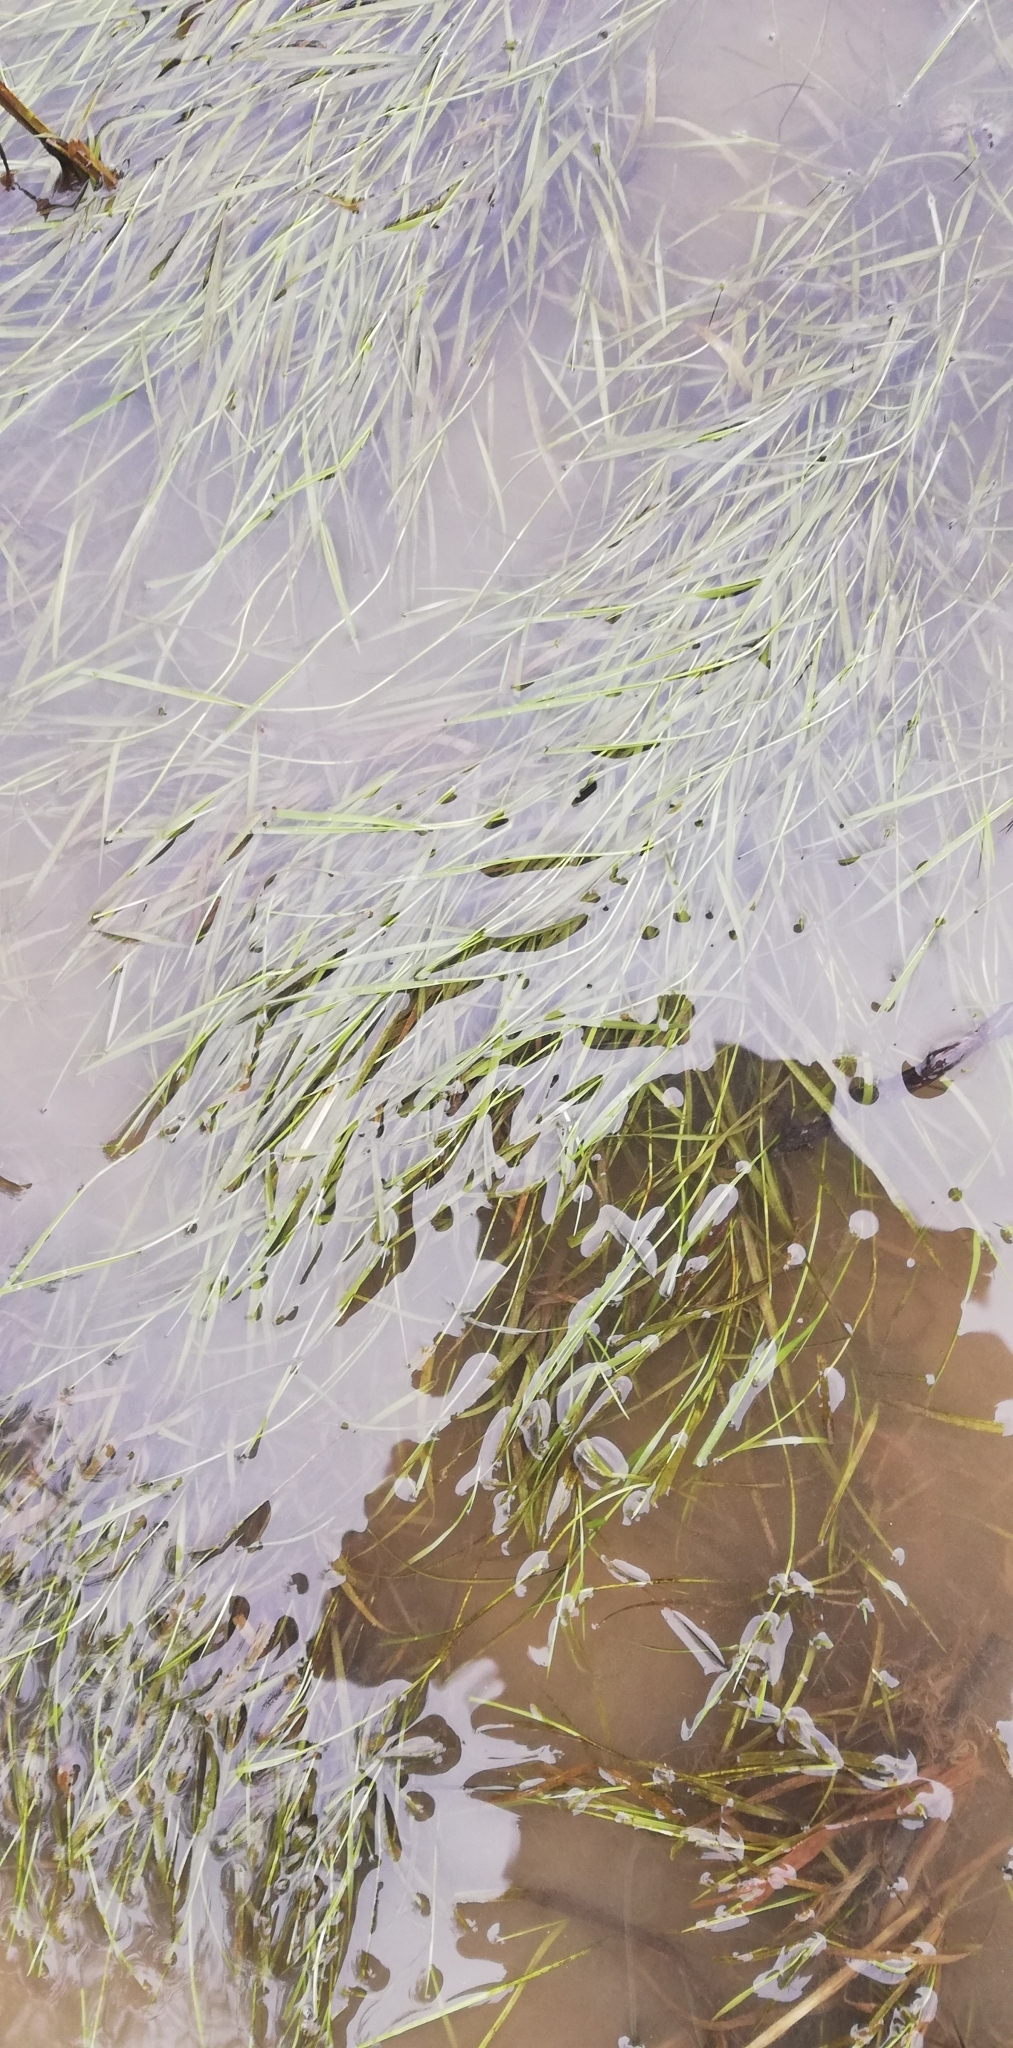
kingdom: Plantae
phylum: Tracheophyta
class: Liliopsida
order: Alismatales
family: Potamogetonaceae
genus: Stuckenia
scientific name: Stuckenia pectinata
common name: Sago pondweed
